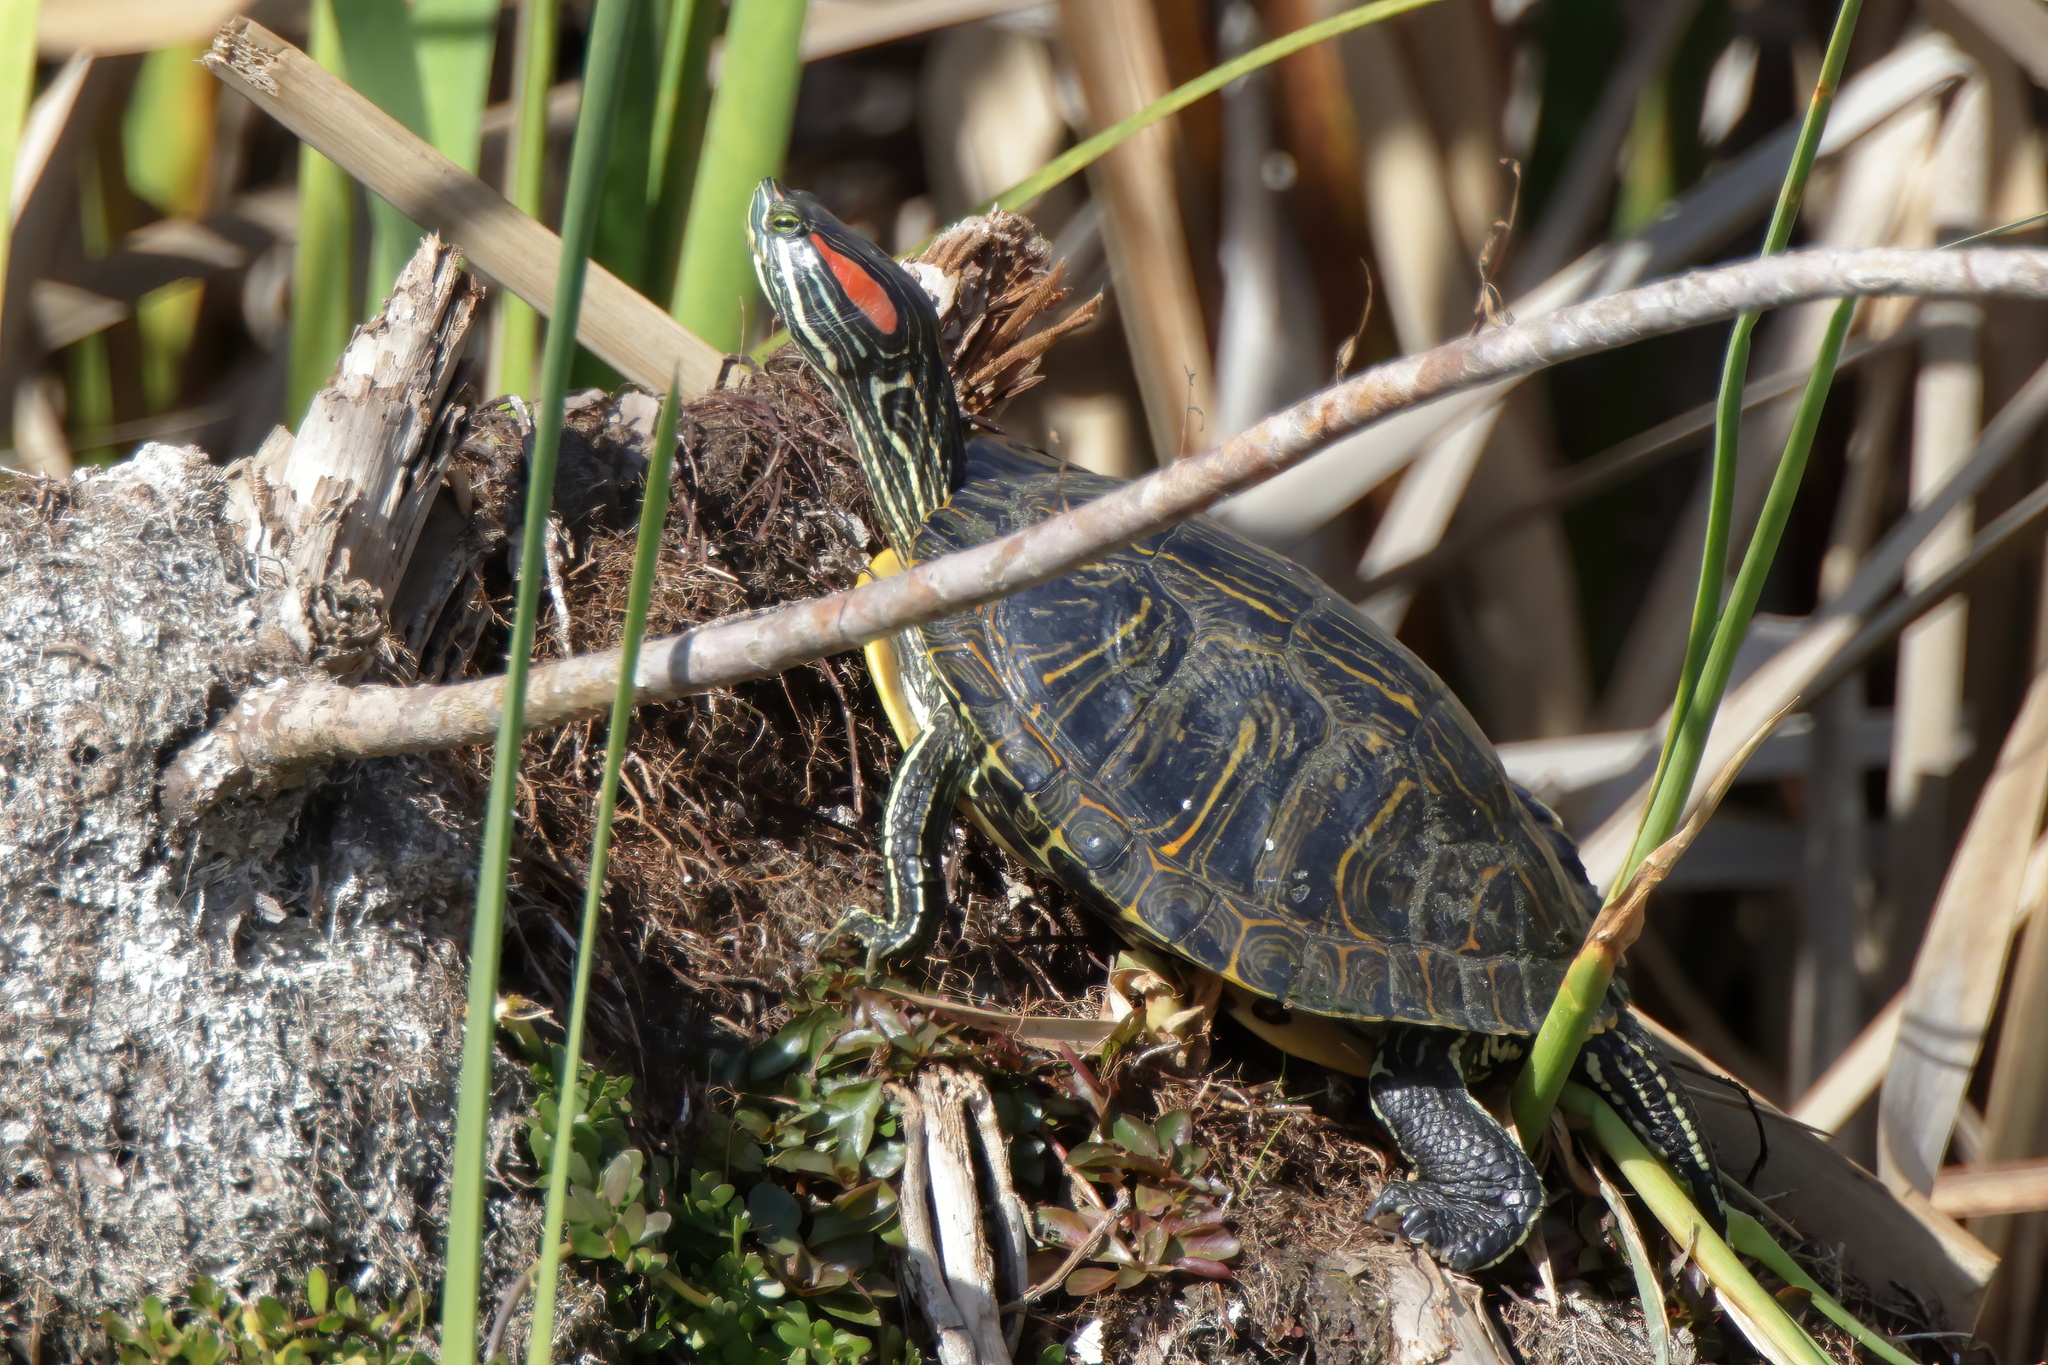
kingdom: Animalia
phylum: Chordata
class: Testudines
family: Emydidae
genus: Trachemys
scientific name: Trachemys scripta
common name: Slider
